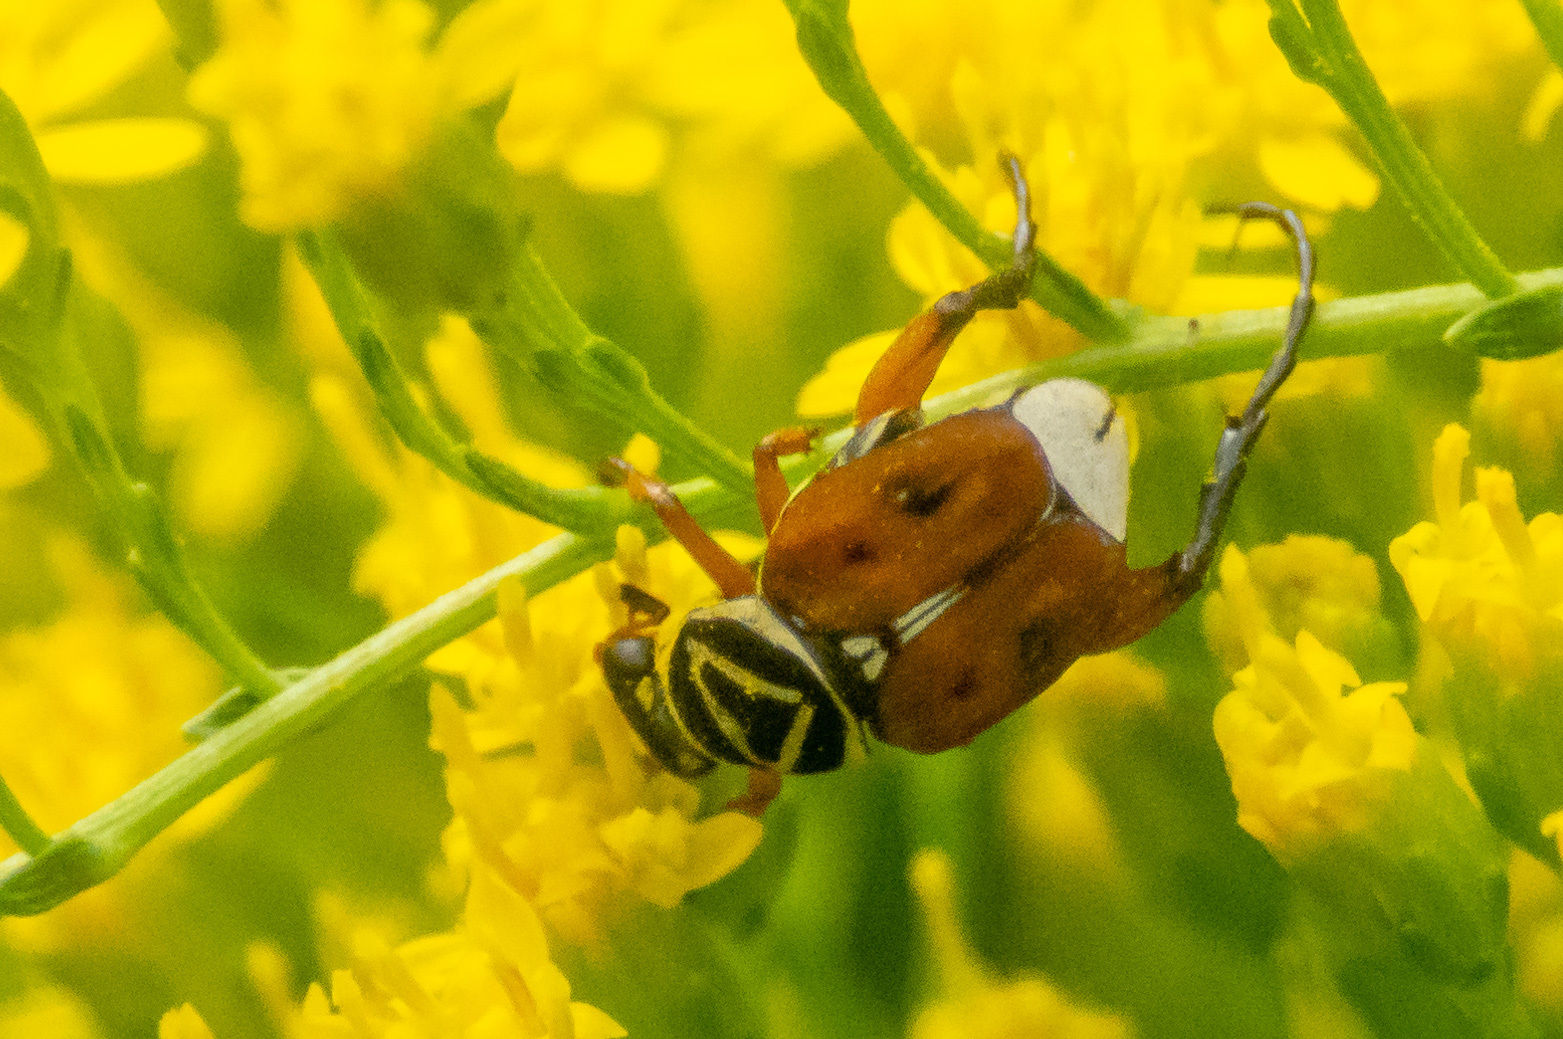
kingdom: Animalia
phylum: Arthropoda
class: Insecta
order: Coleoptera
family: Scarabaeidae
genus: Trigonopeltastes
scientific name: Trigonopeltastes delta
